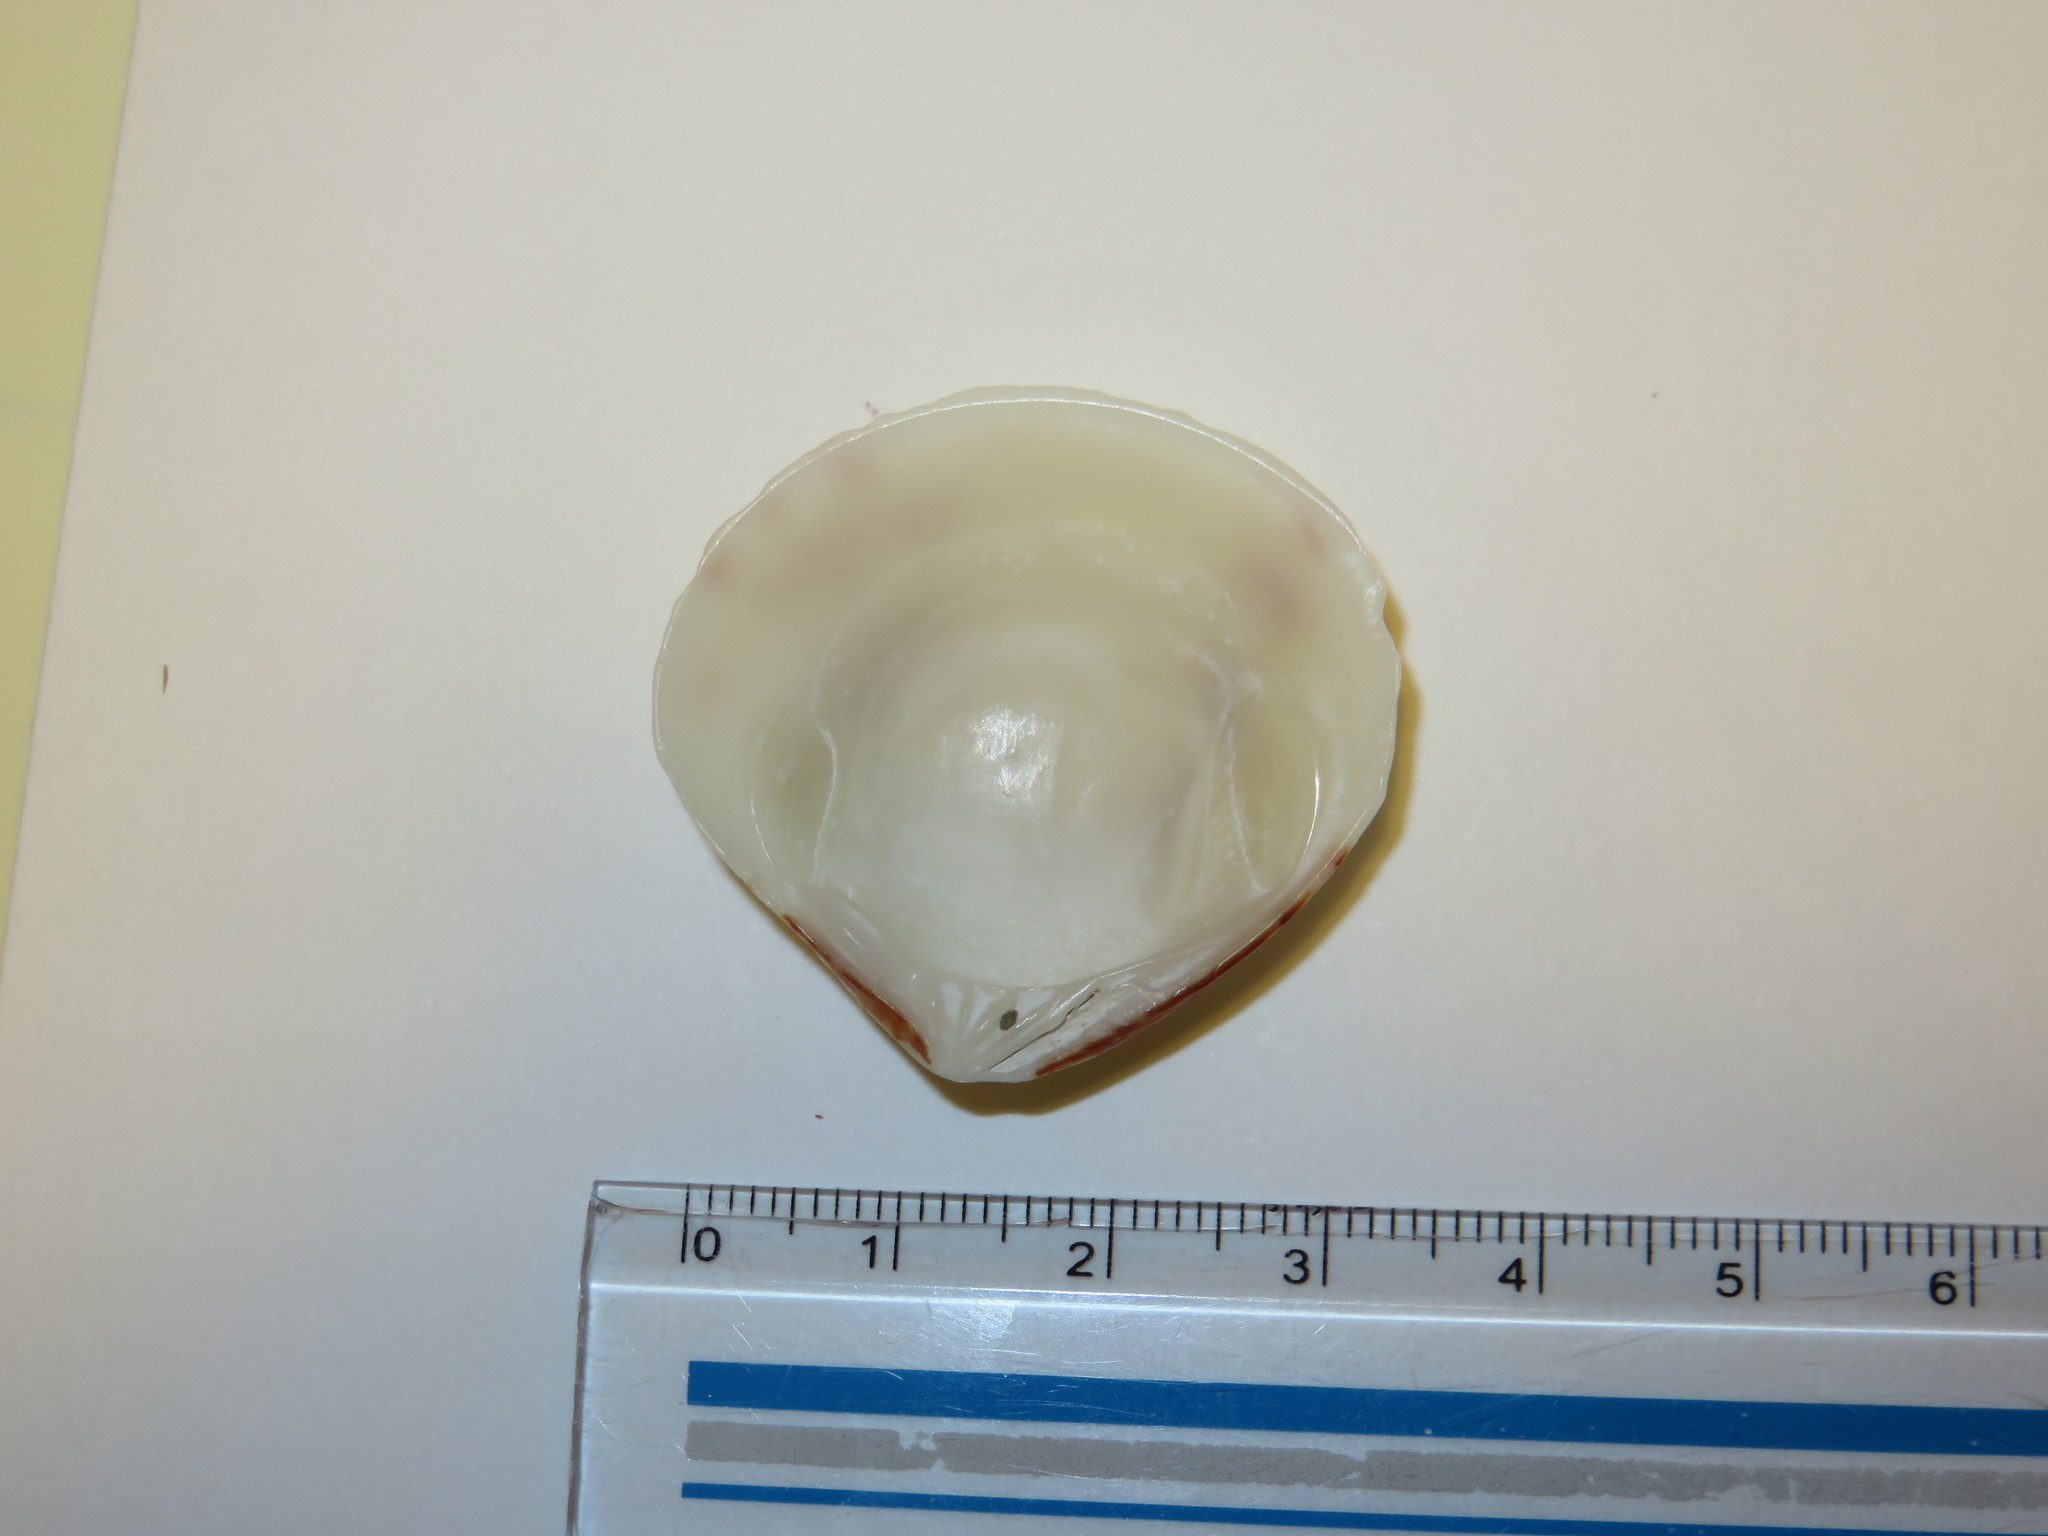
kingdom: Animalia
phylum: Mollusca
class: Bivalvia
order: Venerida
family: Veneridae
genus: Circe
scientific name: Circe undatina
